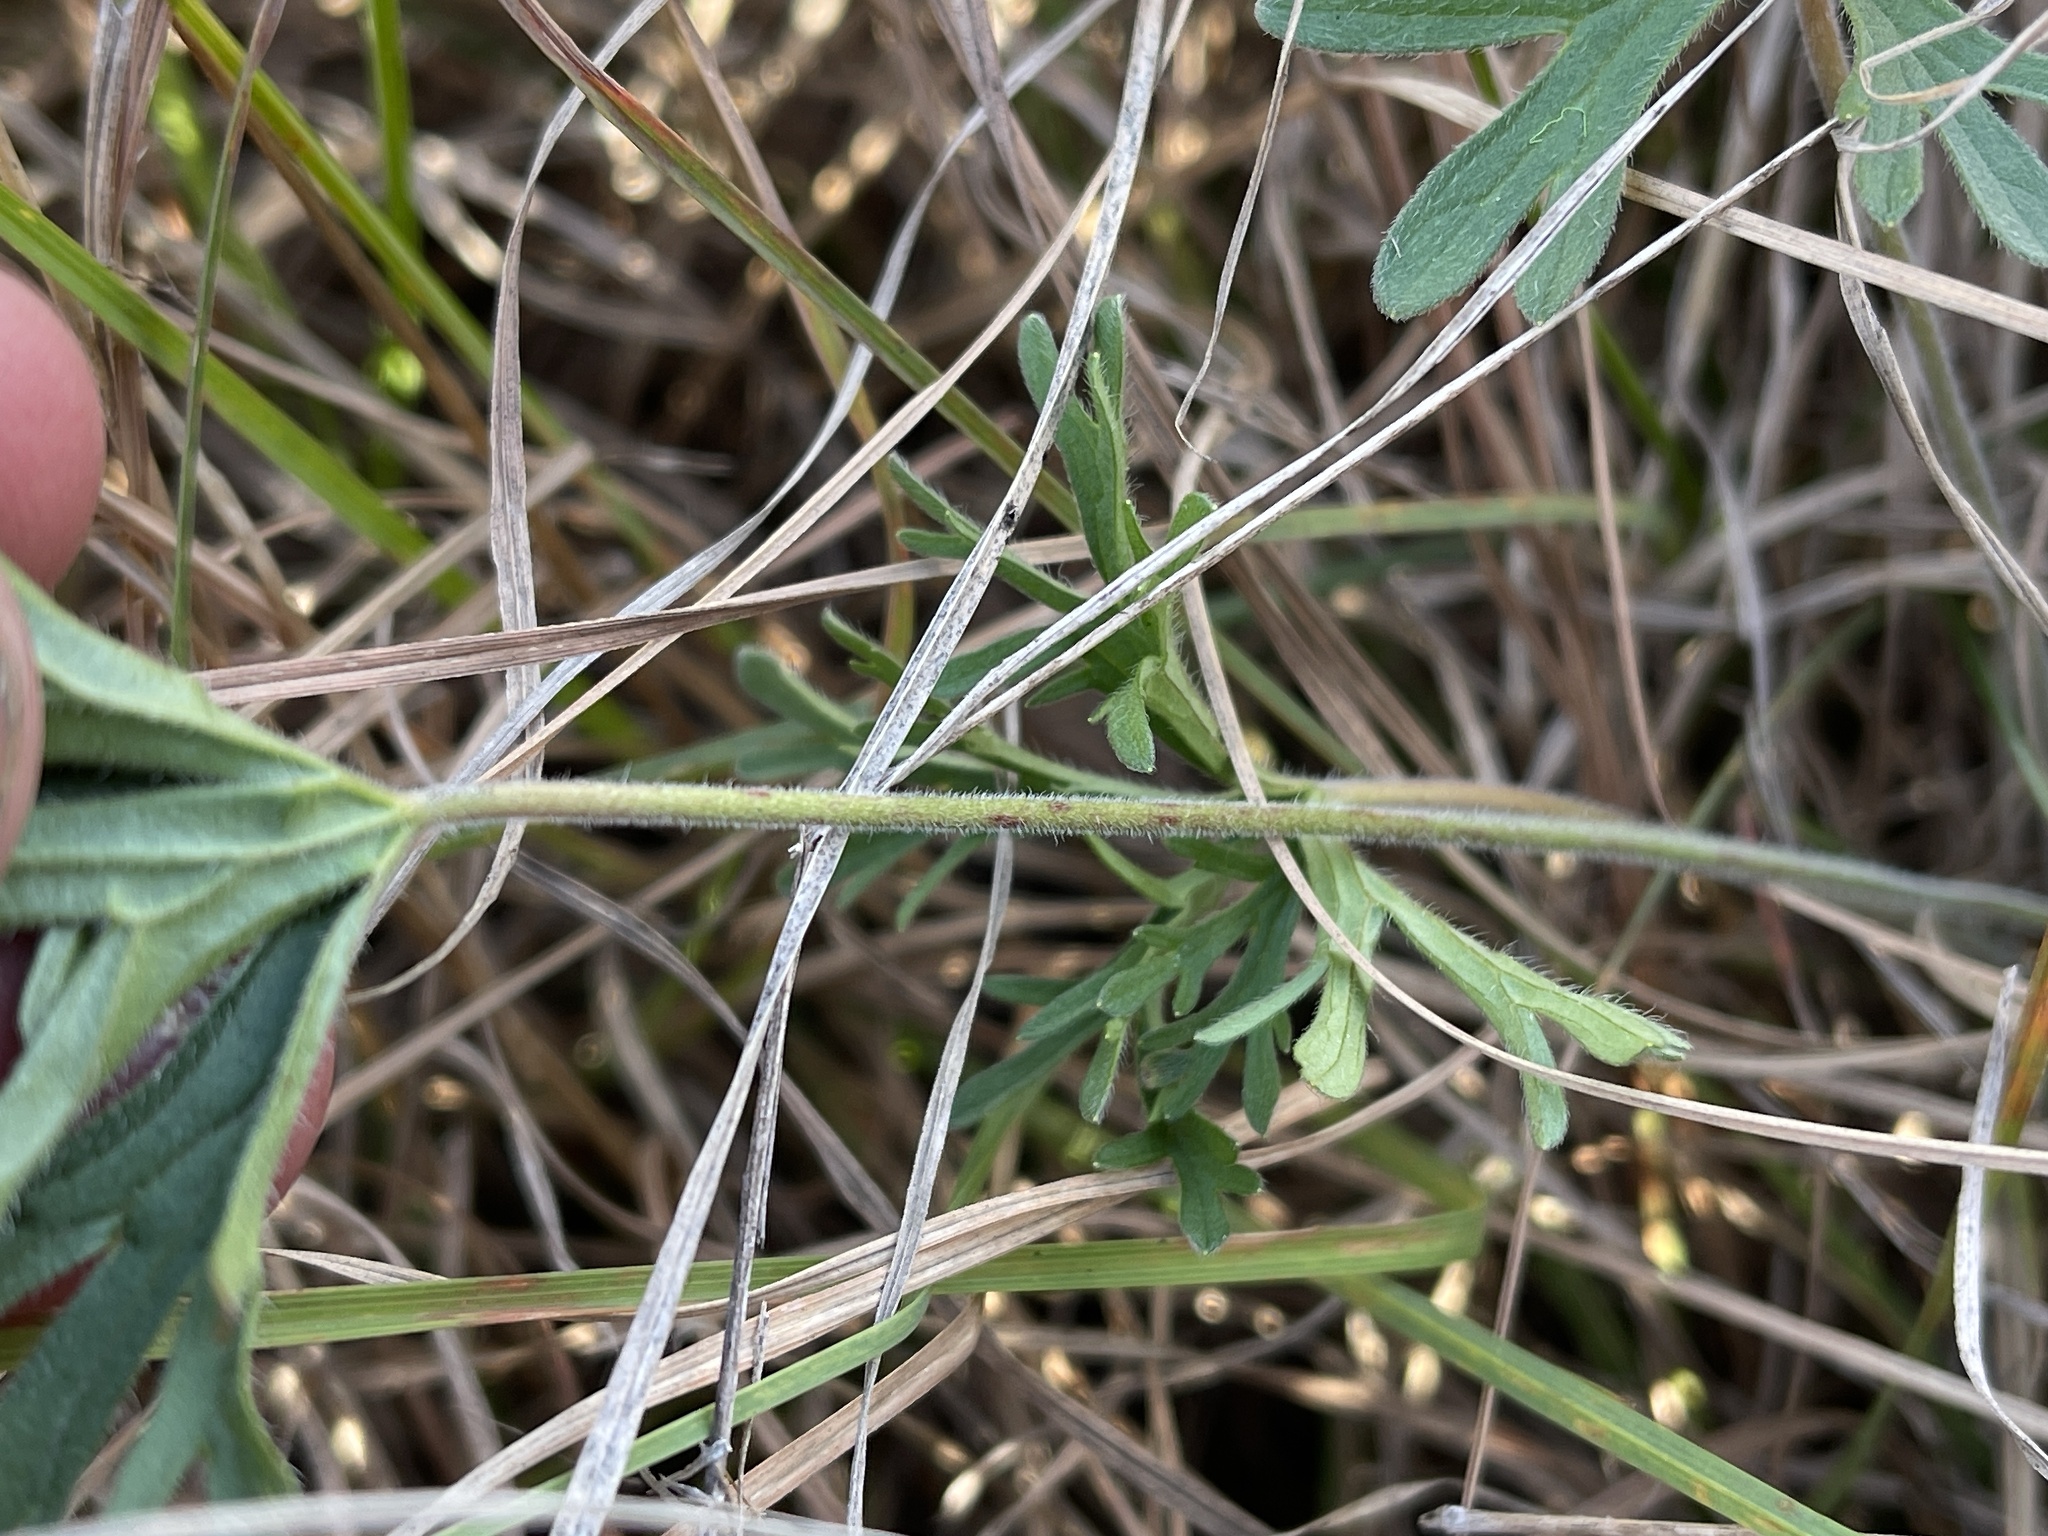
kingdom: Plantae
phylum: Tracheophyta
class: Magnoliopsida
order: Geraniales
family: Geraniaceae
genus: Geranium
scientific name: Geranium retrorsum
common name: New zealand geranium
